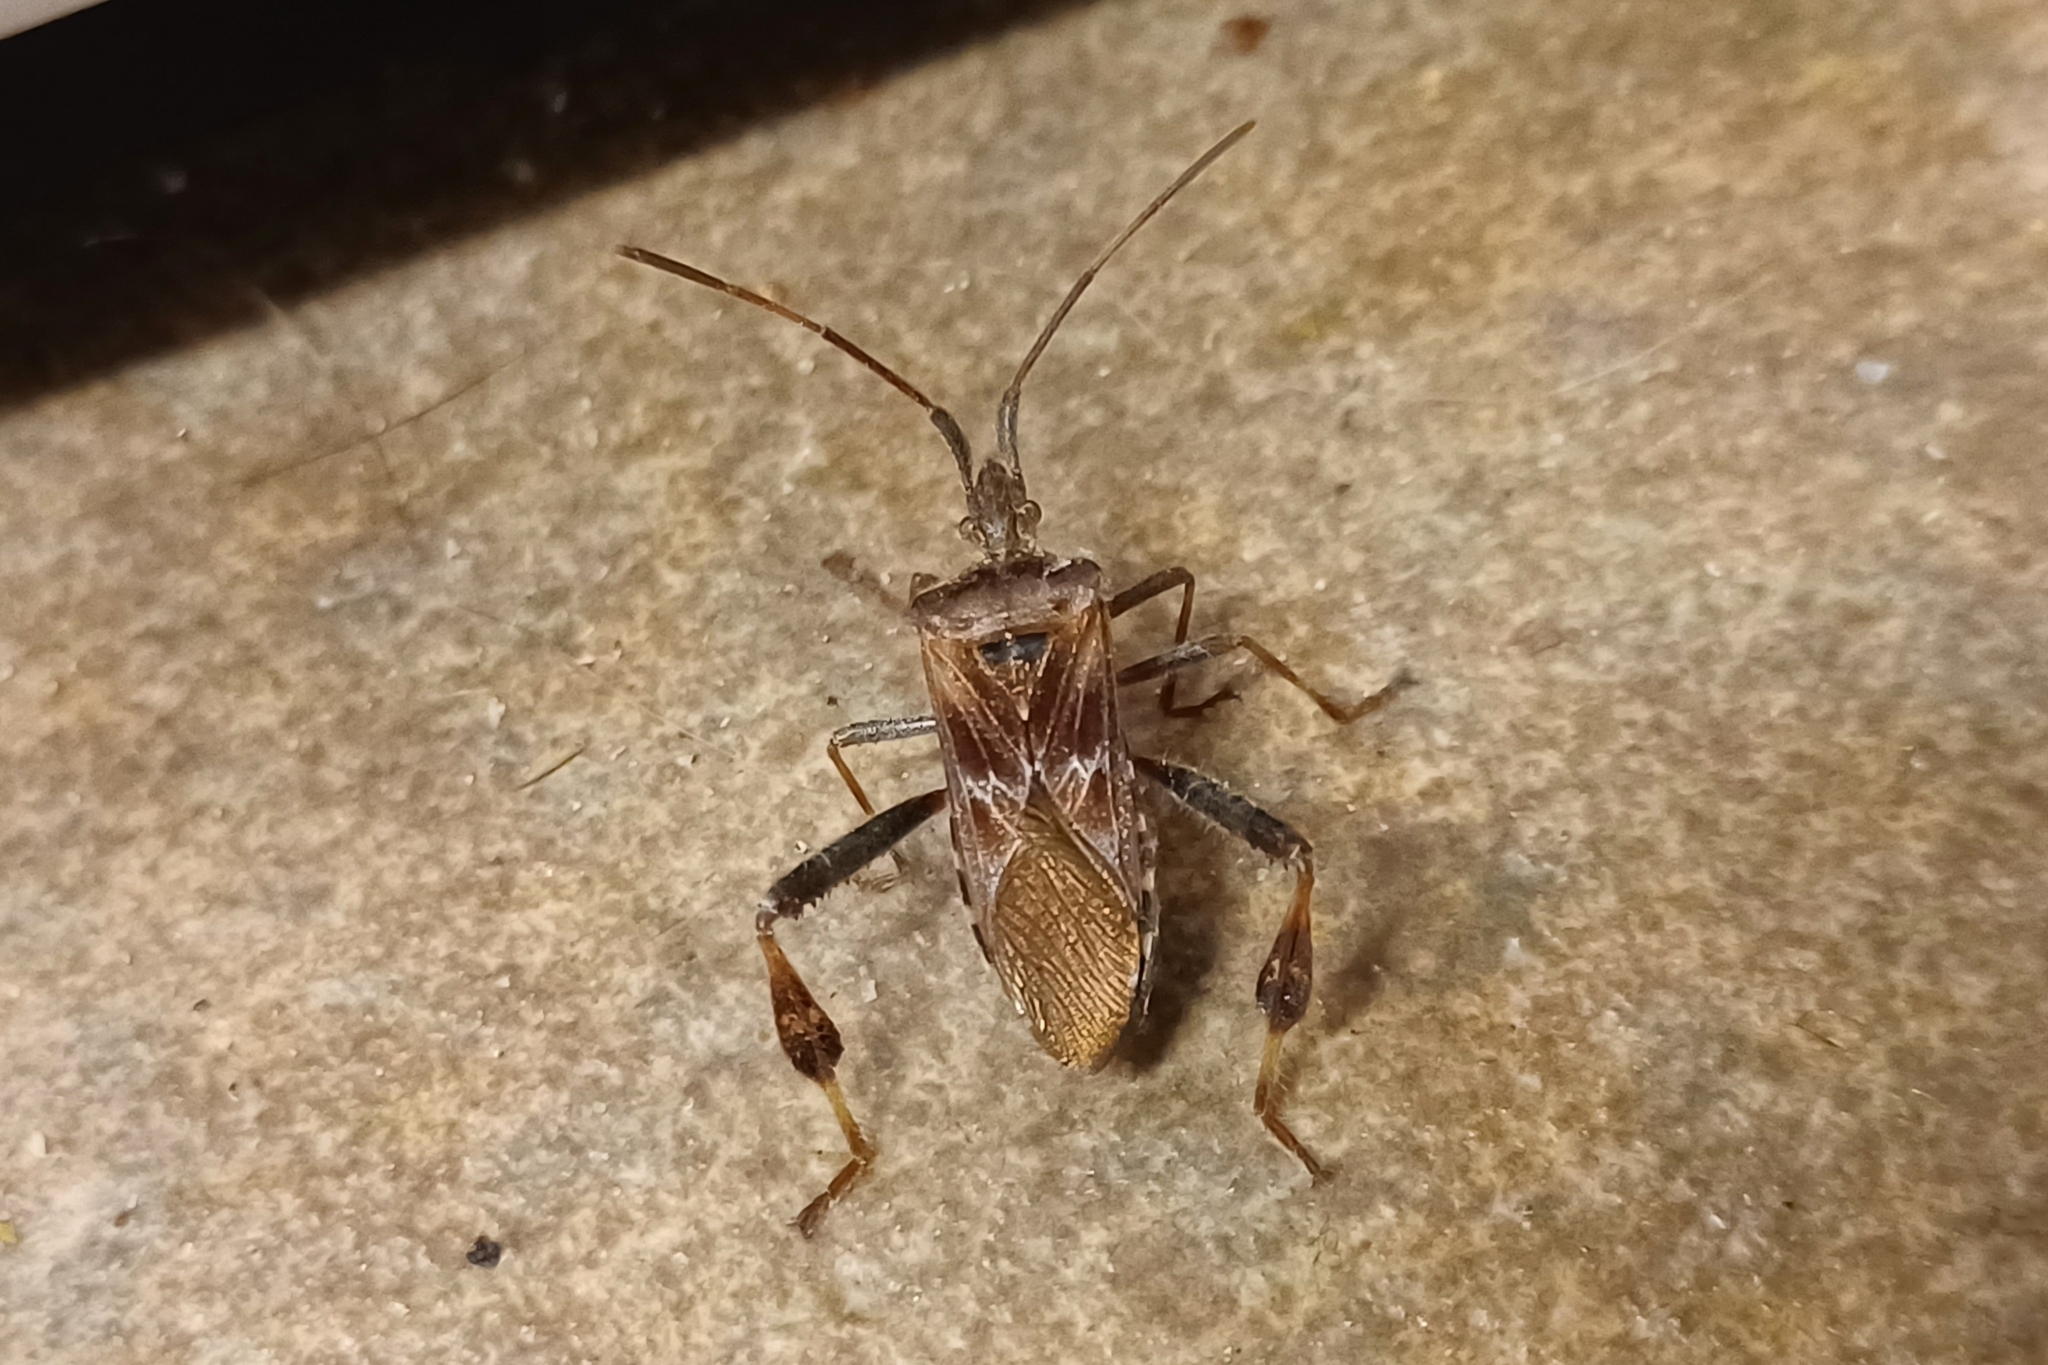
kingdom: Animalia
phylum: Arthropoda
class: Insecta
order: Hemiptera
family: Coreidae
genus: Leptoglossus
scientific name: Leptoglossus occidentalis
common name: Western conifer-seed bug
